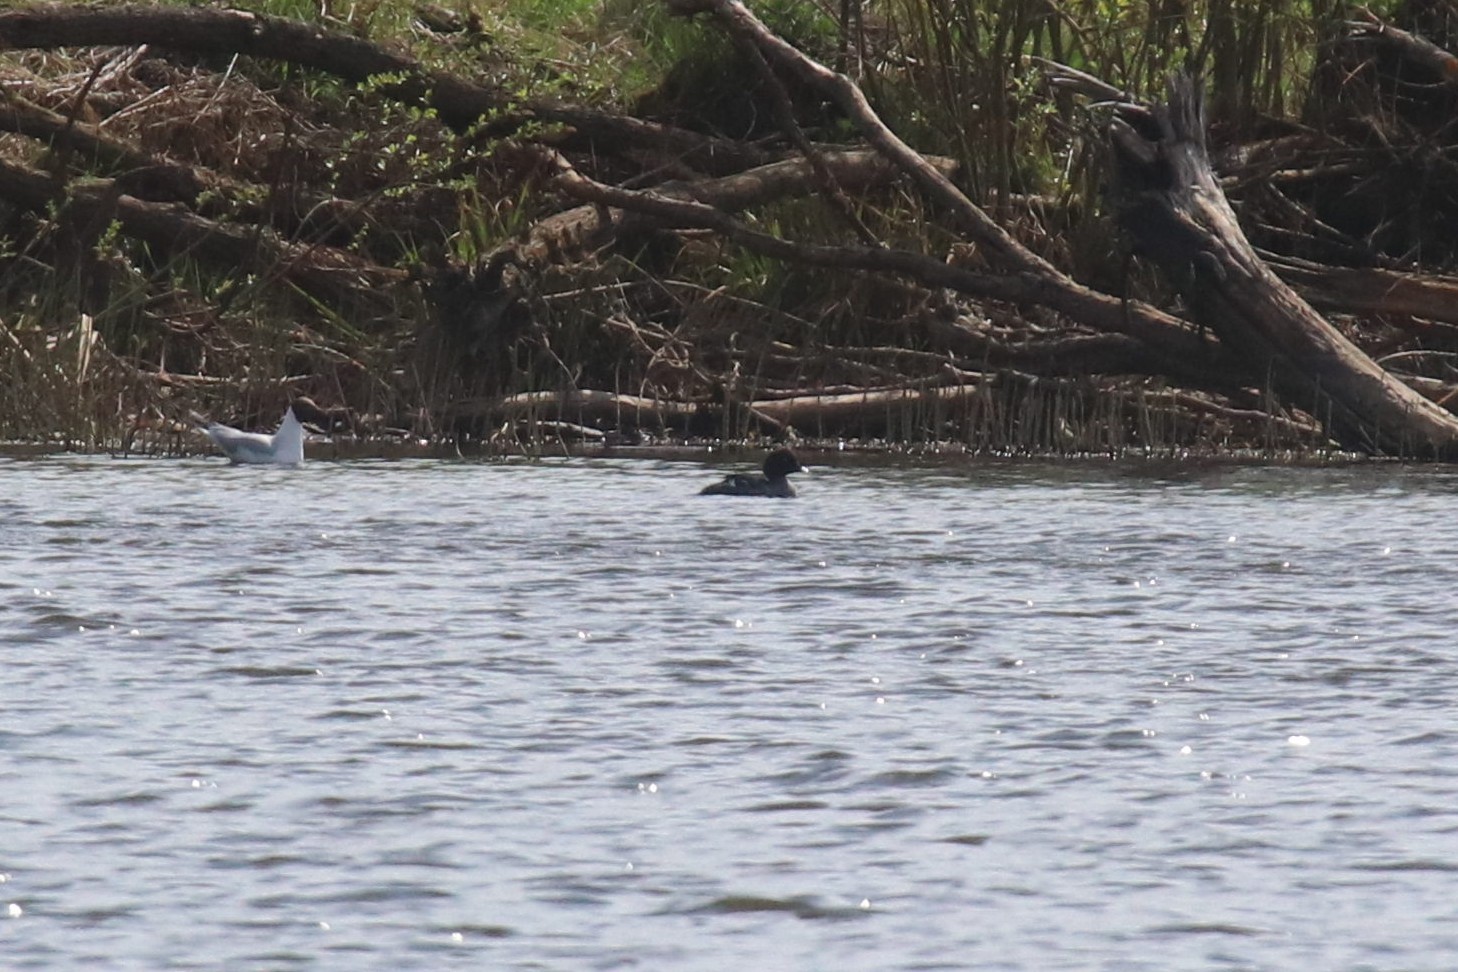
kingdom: Animalia
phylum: Chordata
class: Aves
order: Anseriformes
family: Anatidae
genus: Bucephala
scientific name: Bucephala clangula
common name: Common goldeneye
